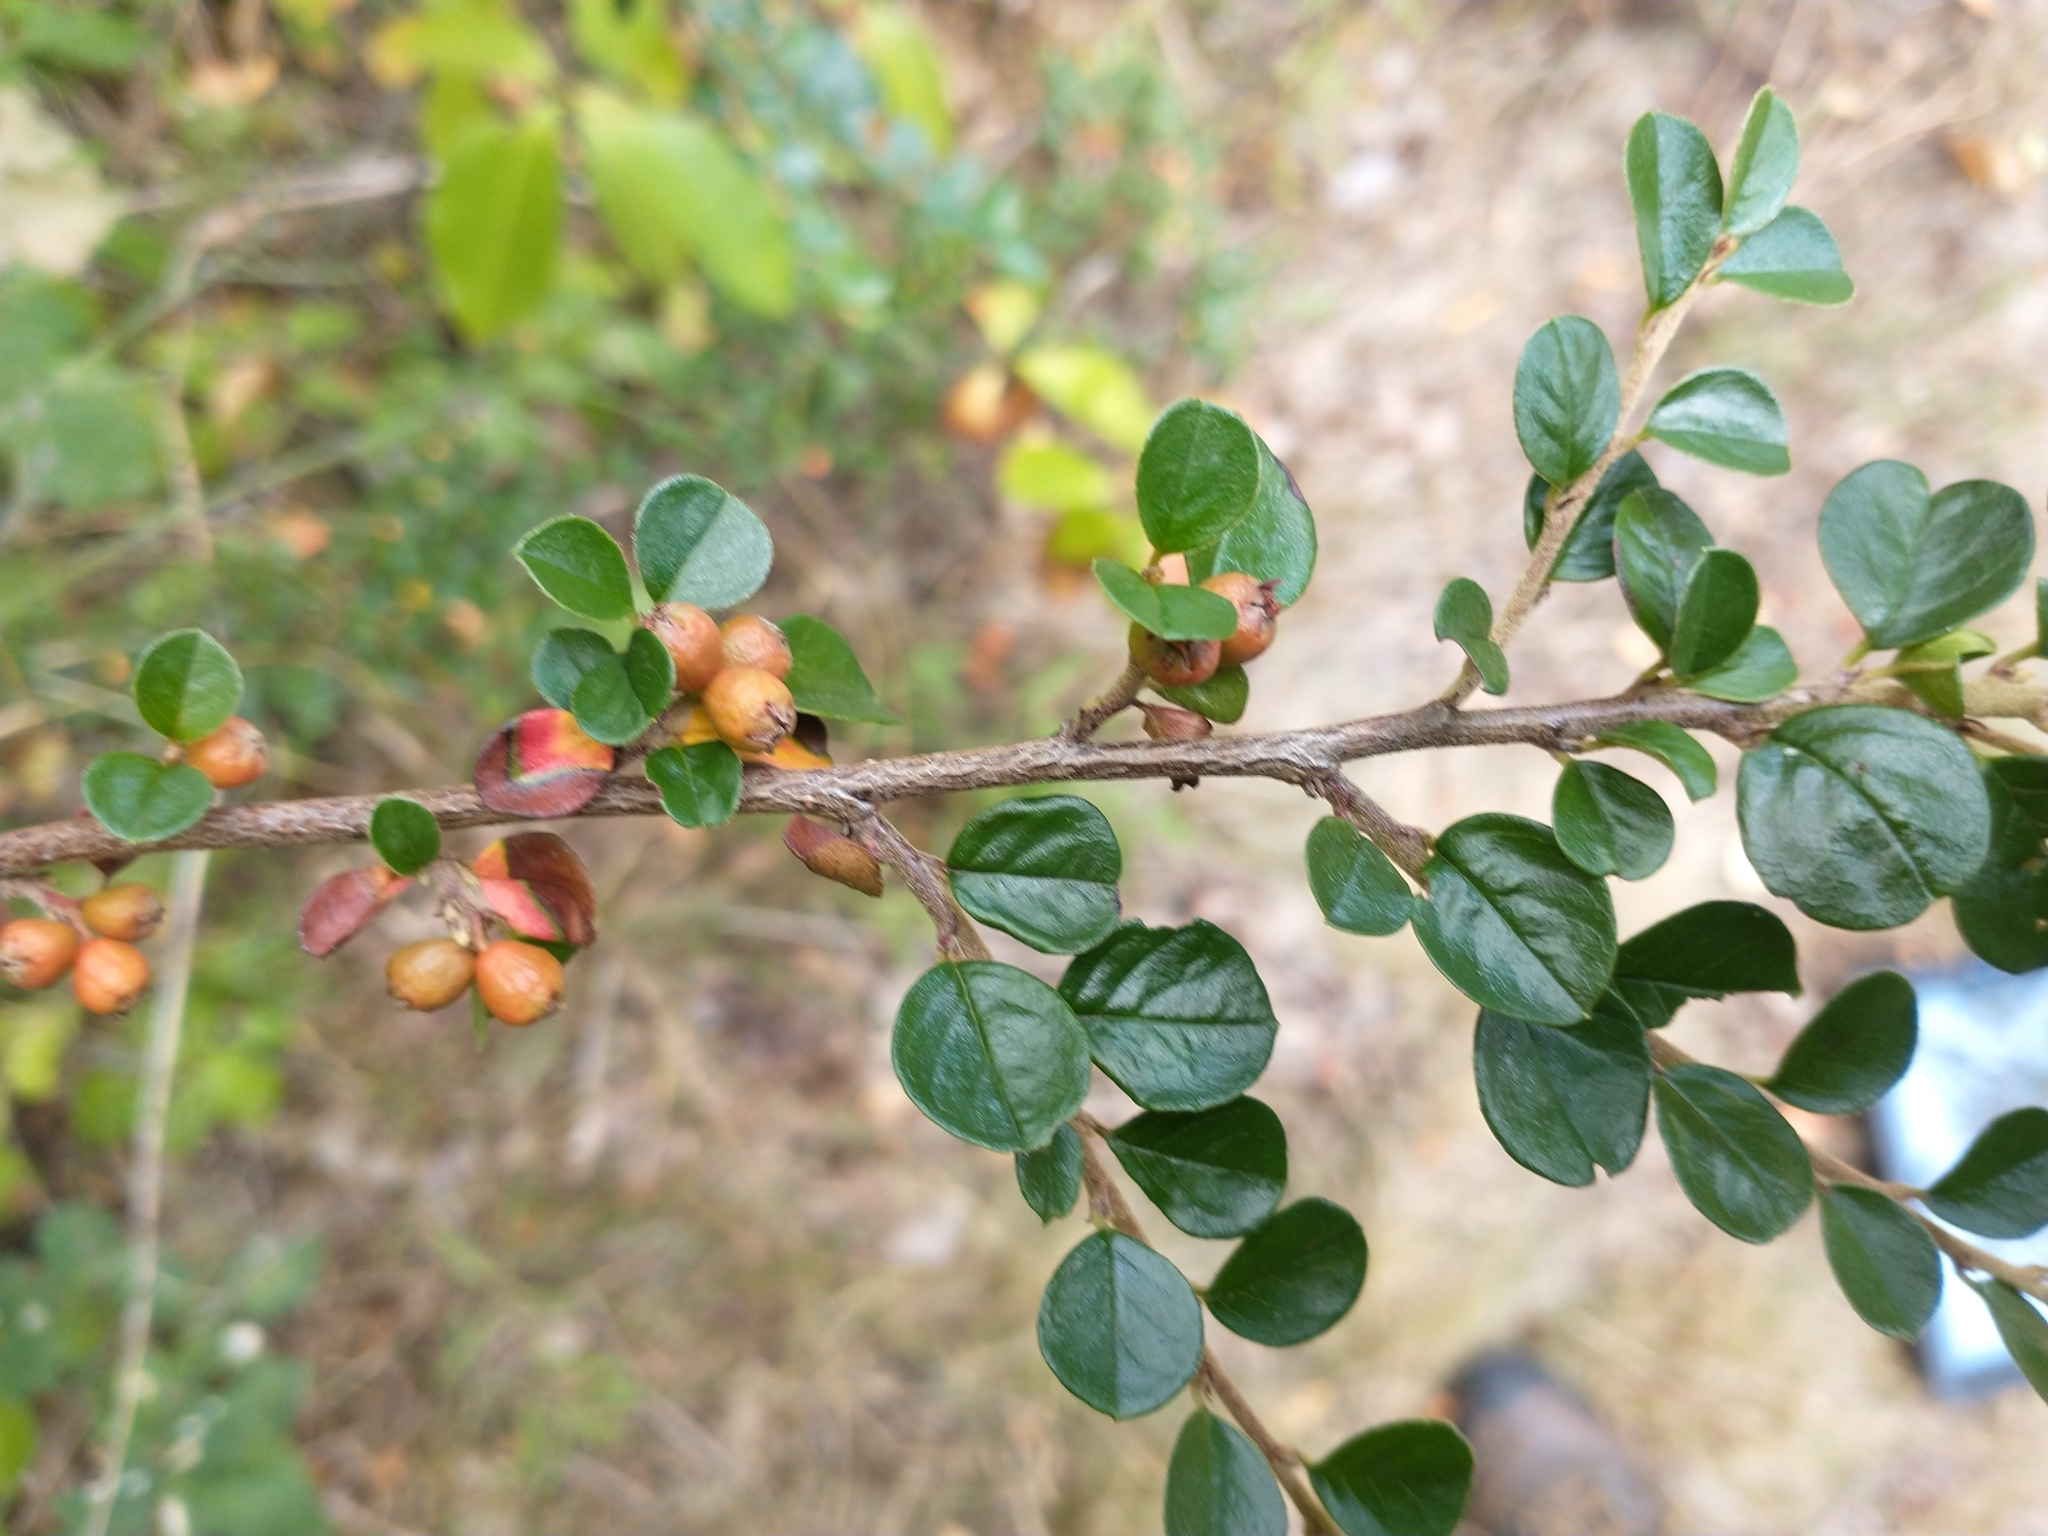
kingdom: Plantae
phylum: Tracheophyta
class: Magnoliopsida
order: Rosales
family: Rosaceae
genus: Cotoneaster
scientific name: Cotoneaster hjelmqvistii
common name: Hjelmqvist's cotoneaster
